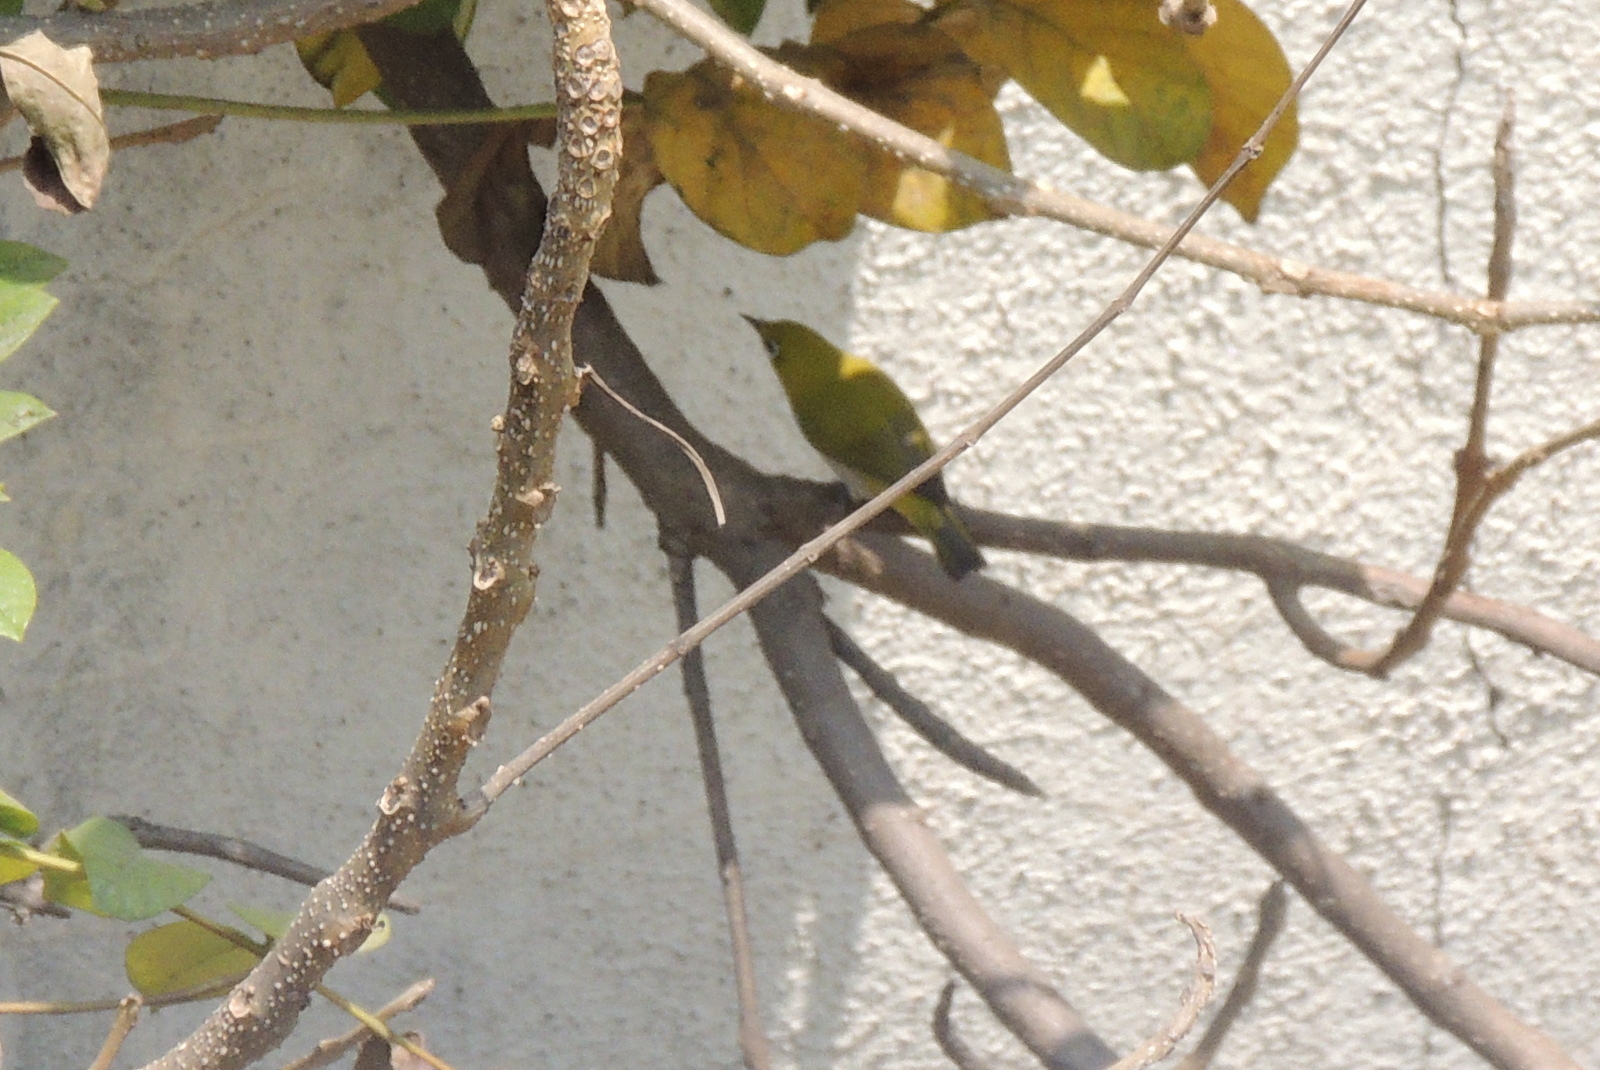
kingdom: Animalia
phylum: Chordata
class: Aves
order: Passeriformes
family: Zosteropidae
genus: Zosterops
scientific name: Zosterops palpebrosus
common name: Oriental white-eye
